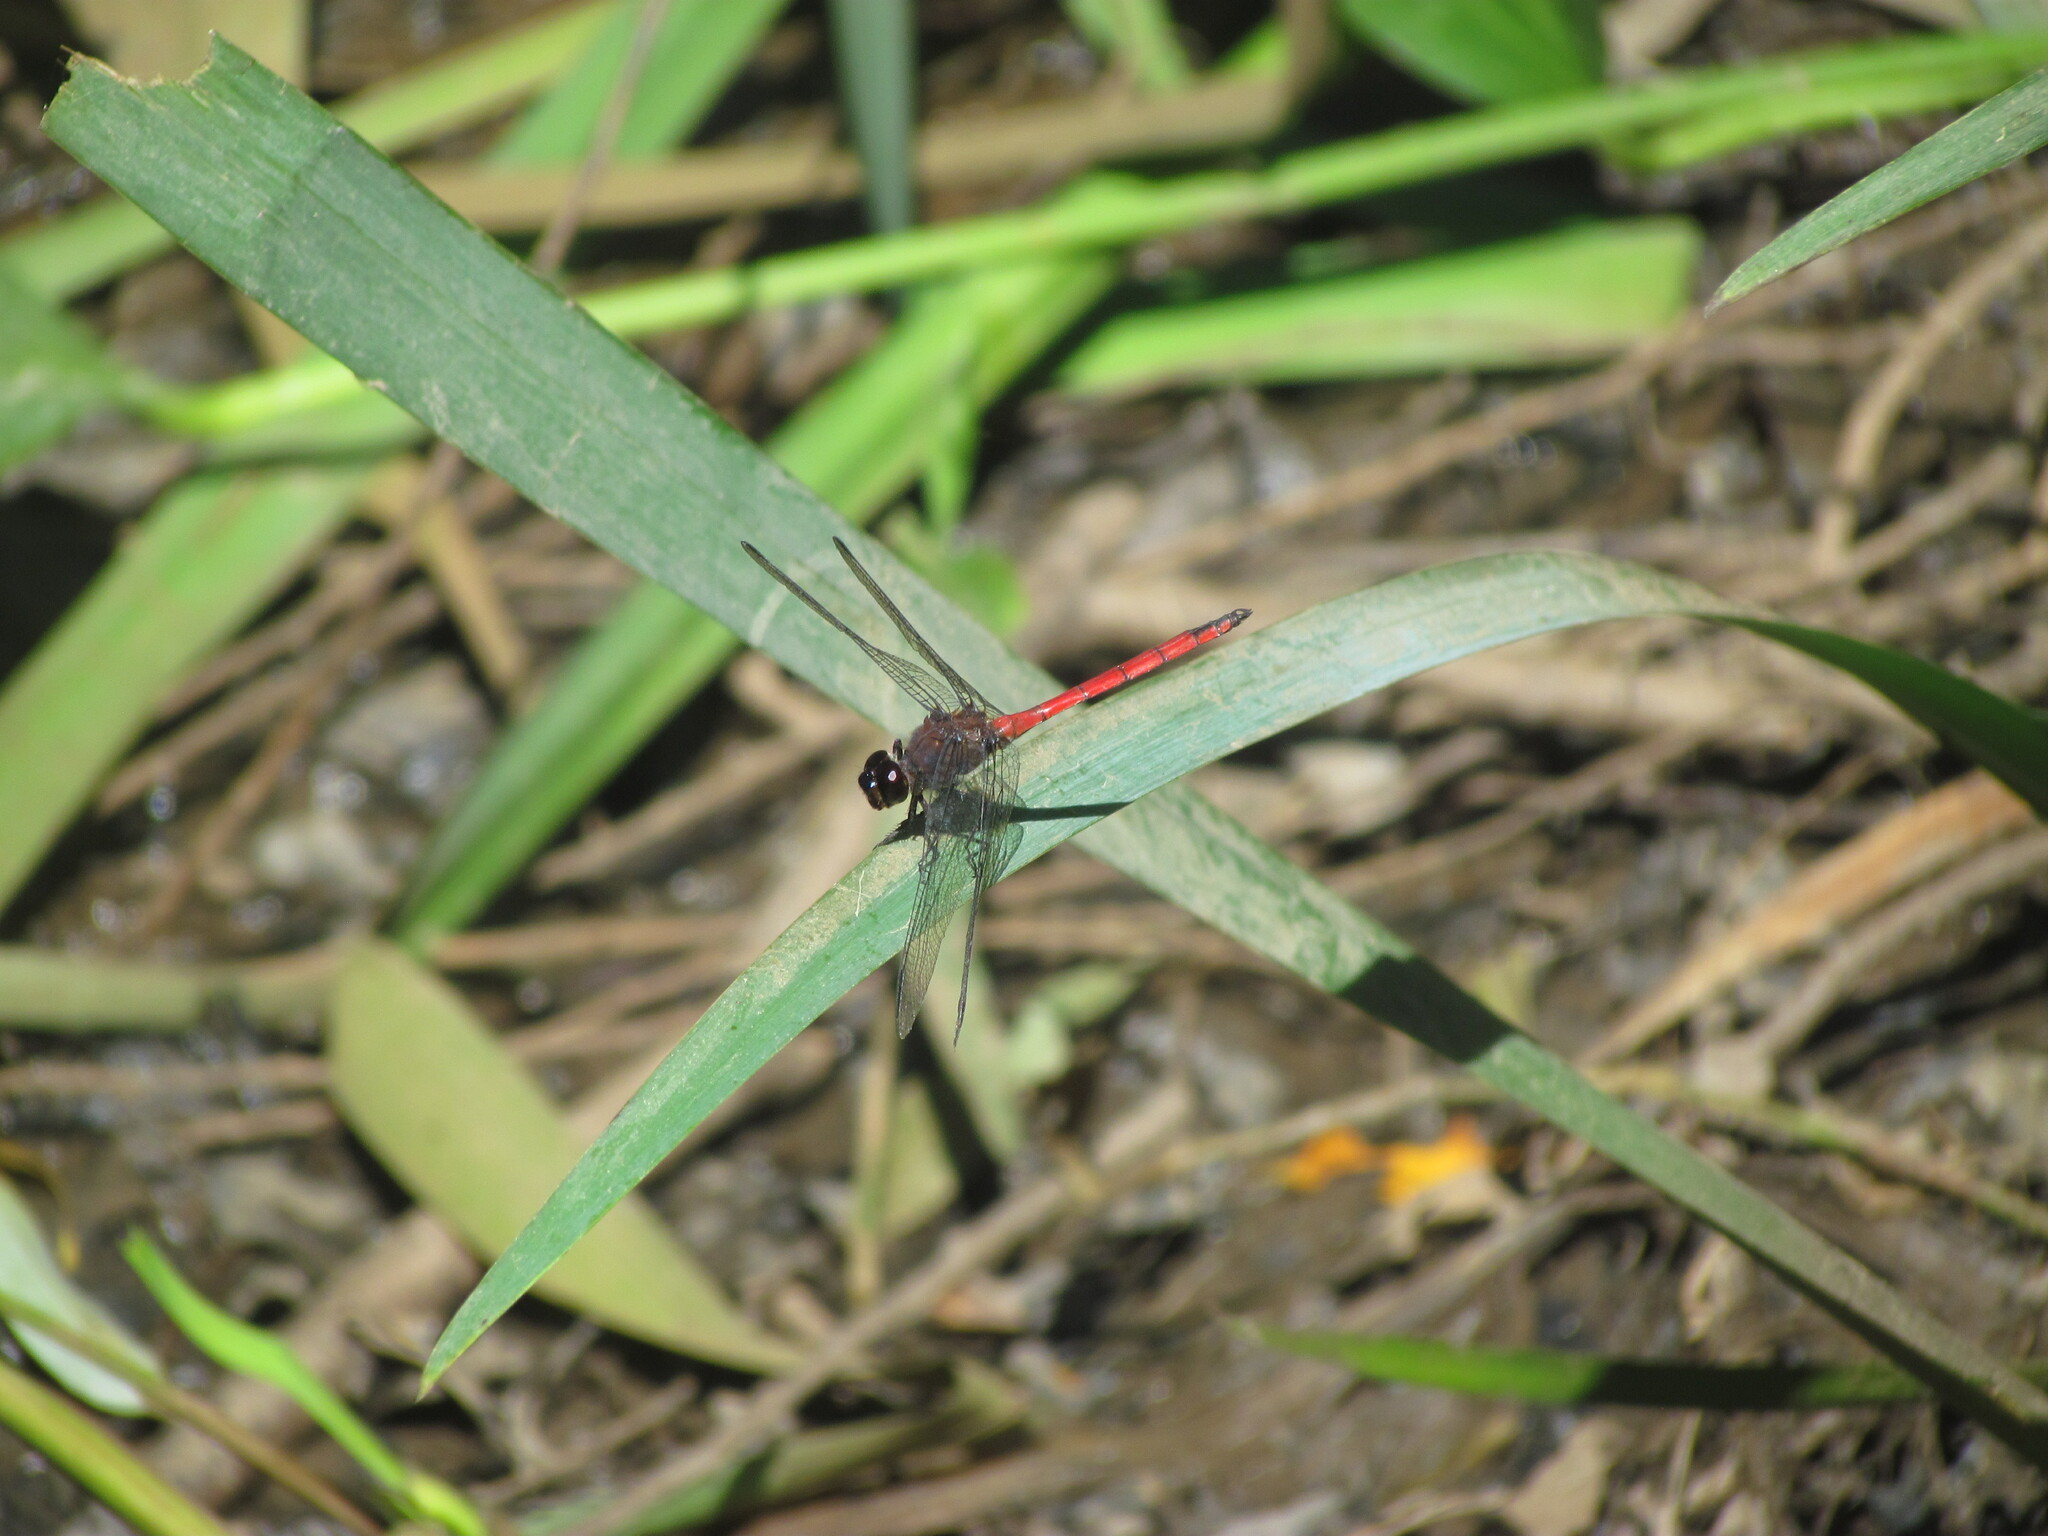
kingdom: Animalia
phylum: Arthropoda
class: Insecta
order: Odonata
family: Libellulidae
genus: Orthemis
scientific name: Orthemis ambinigra
